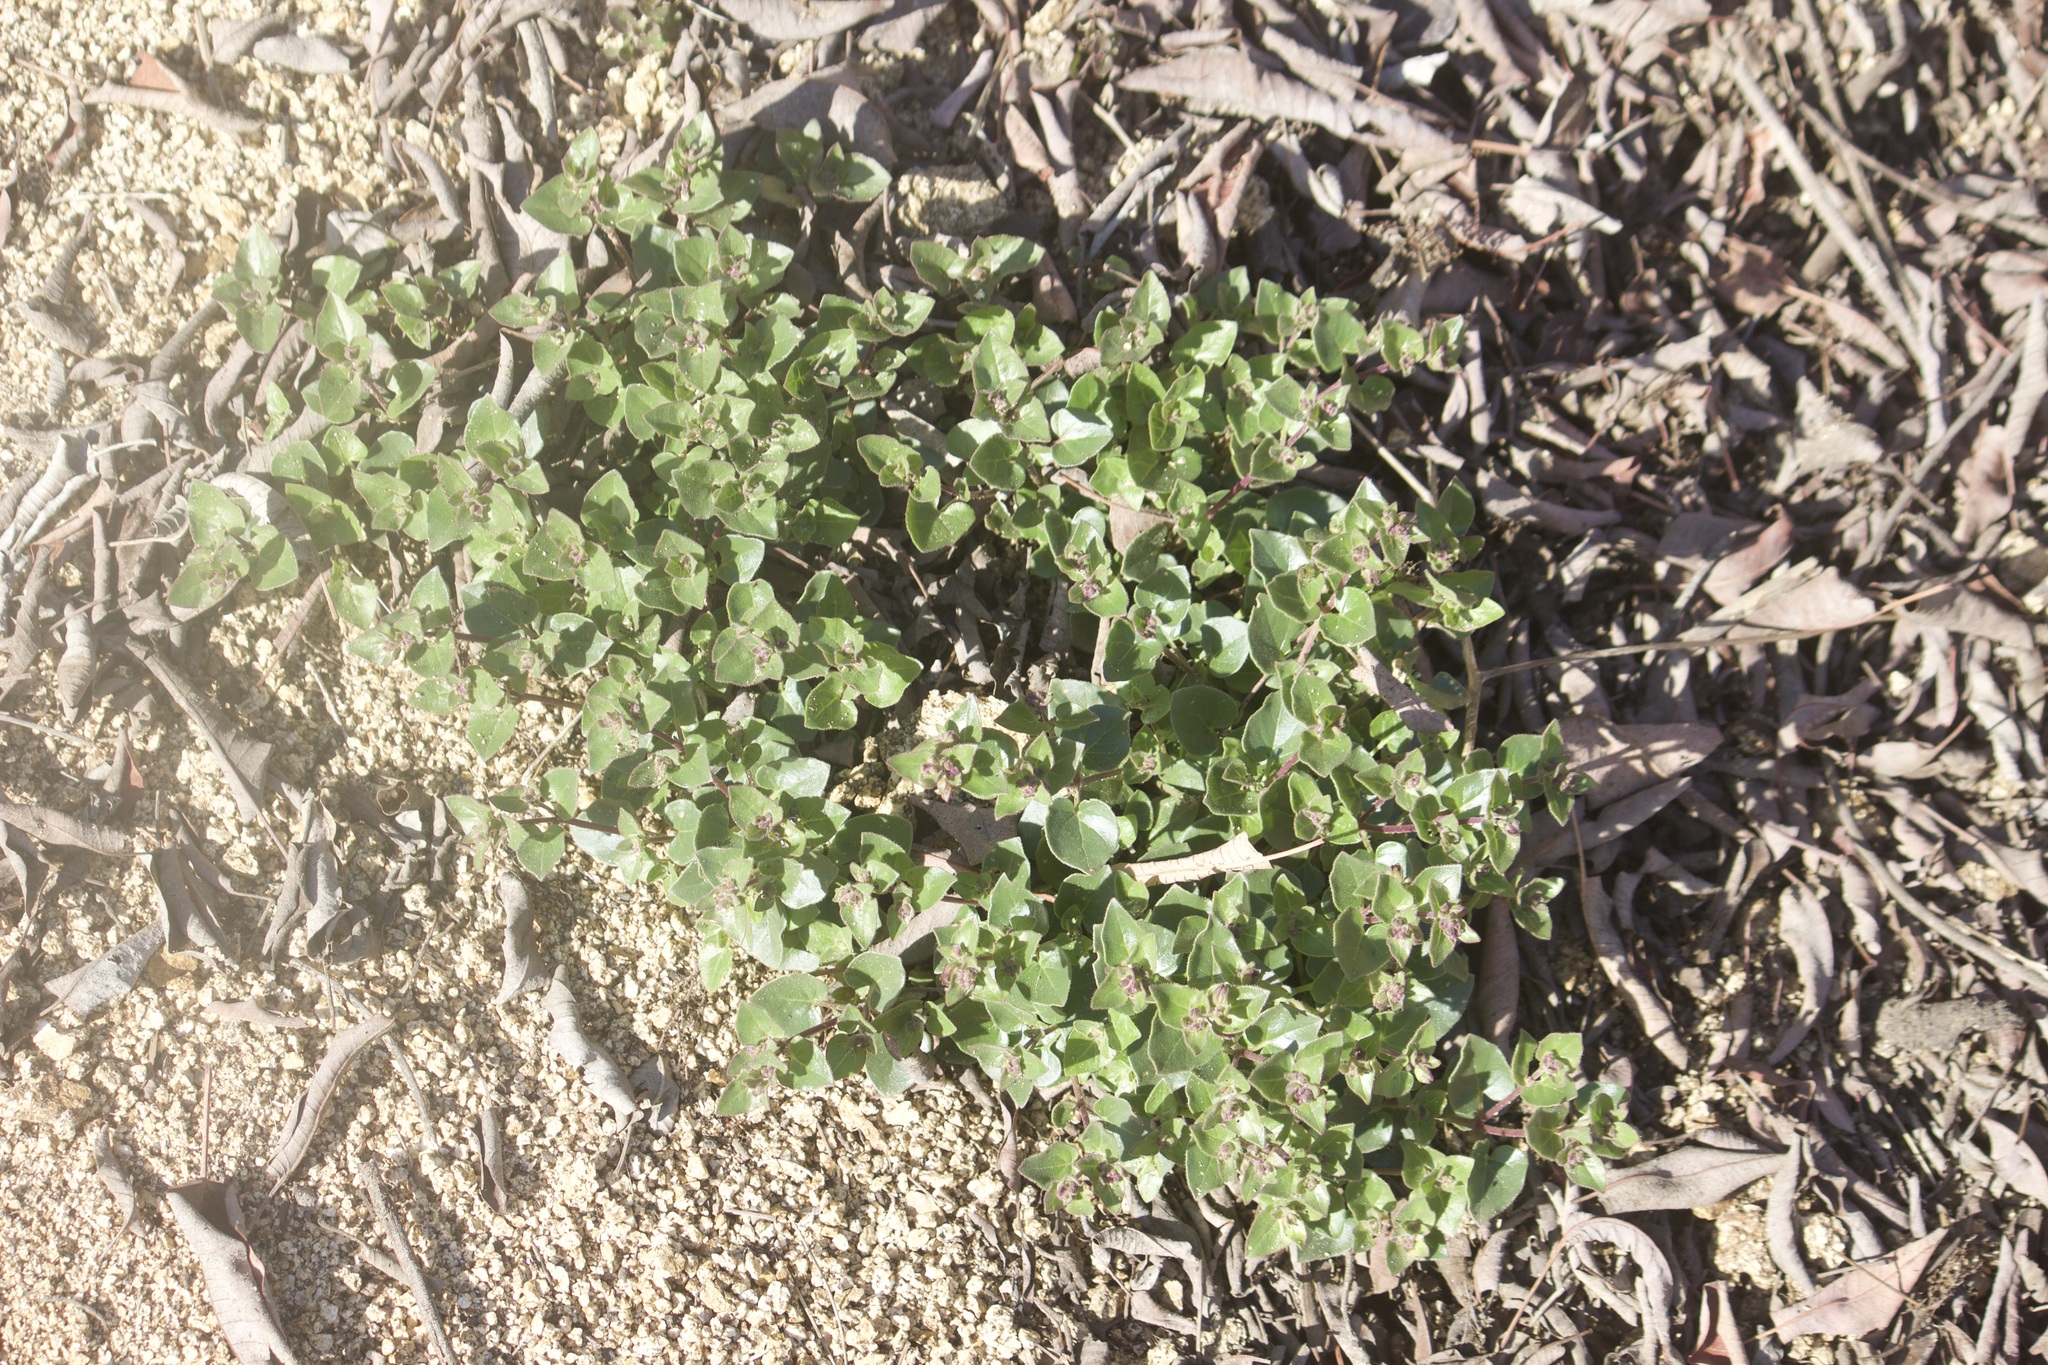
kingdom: Plantae
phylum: Tracheophyta
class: Magnoliopsida
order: Caryophyllales
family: Nyctaginaceae
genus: Mirabilis
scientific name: Mirabilis laevis
